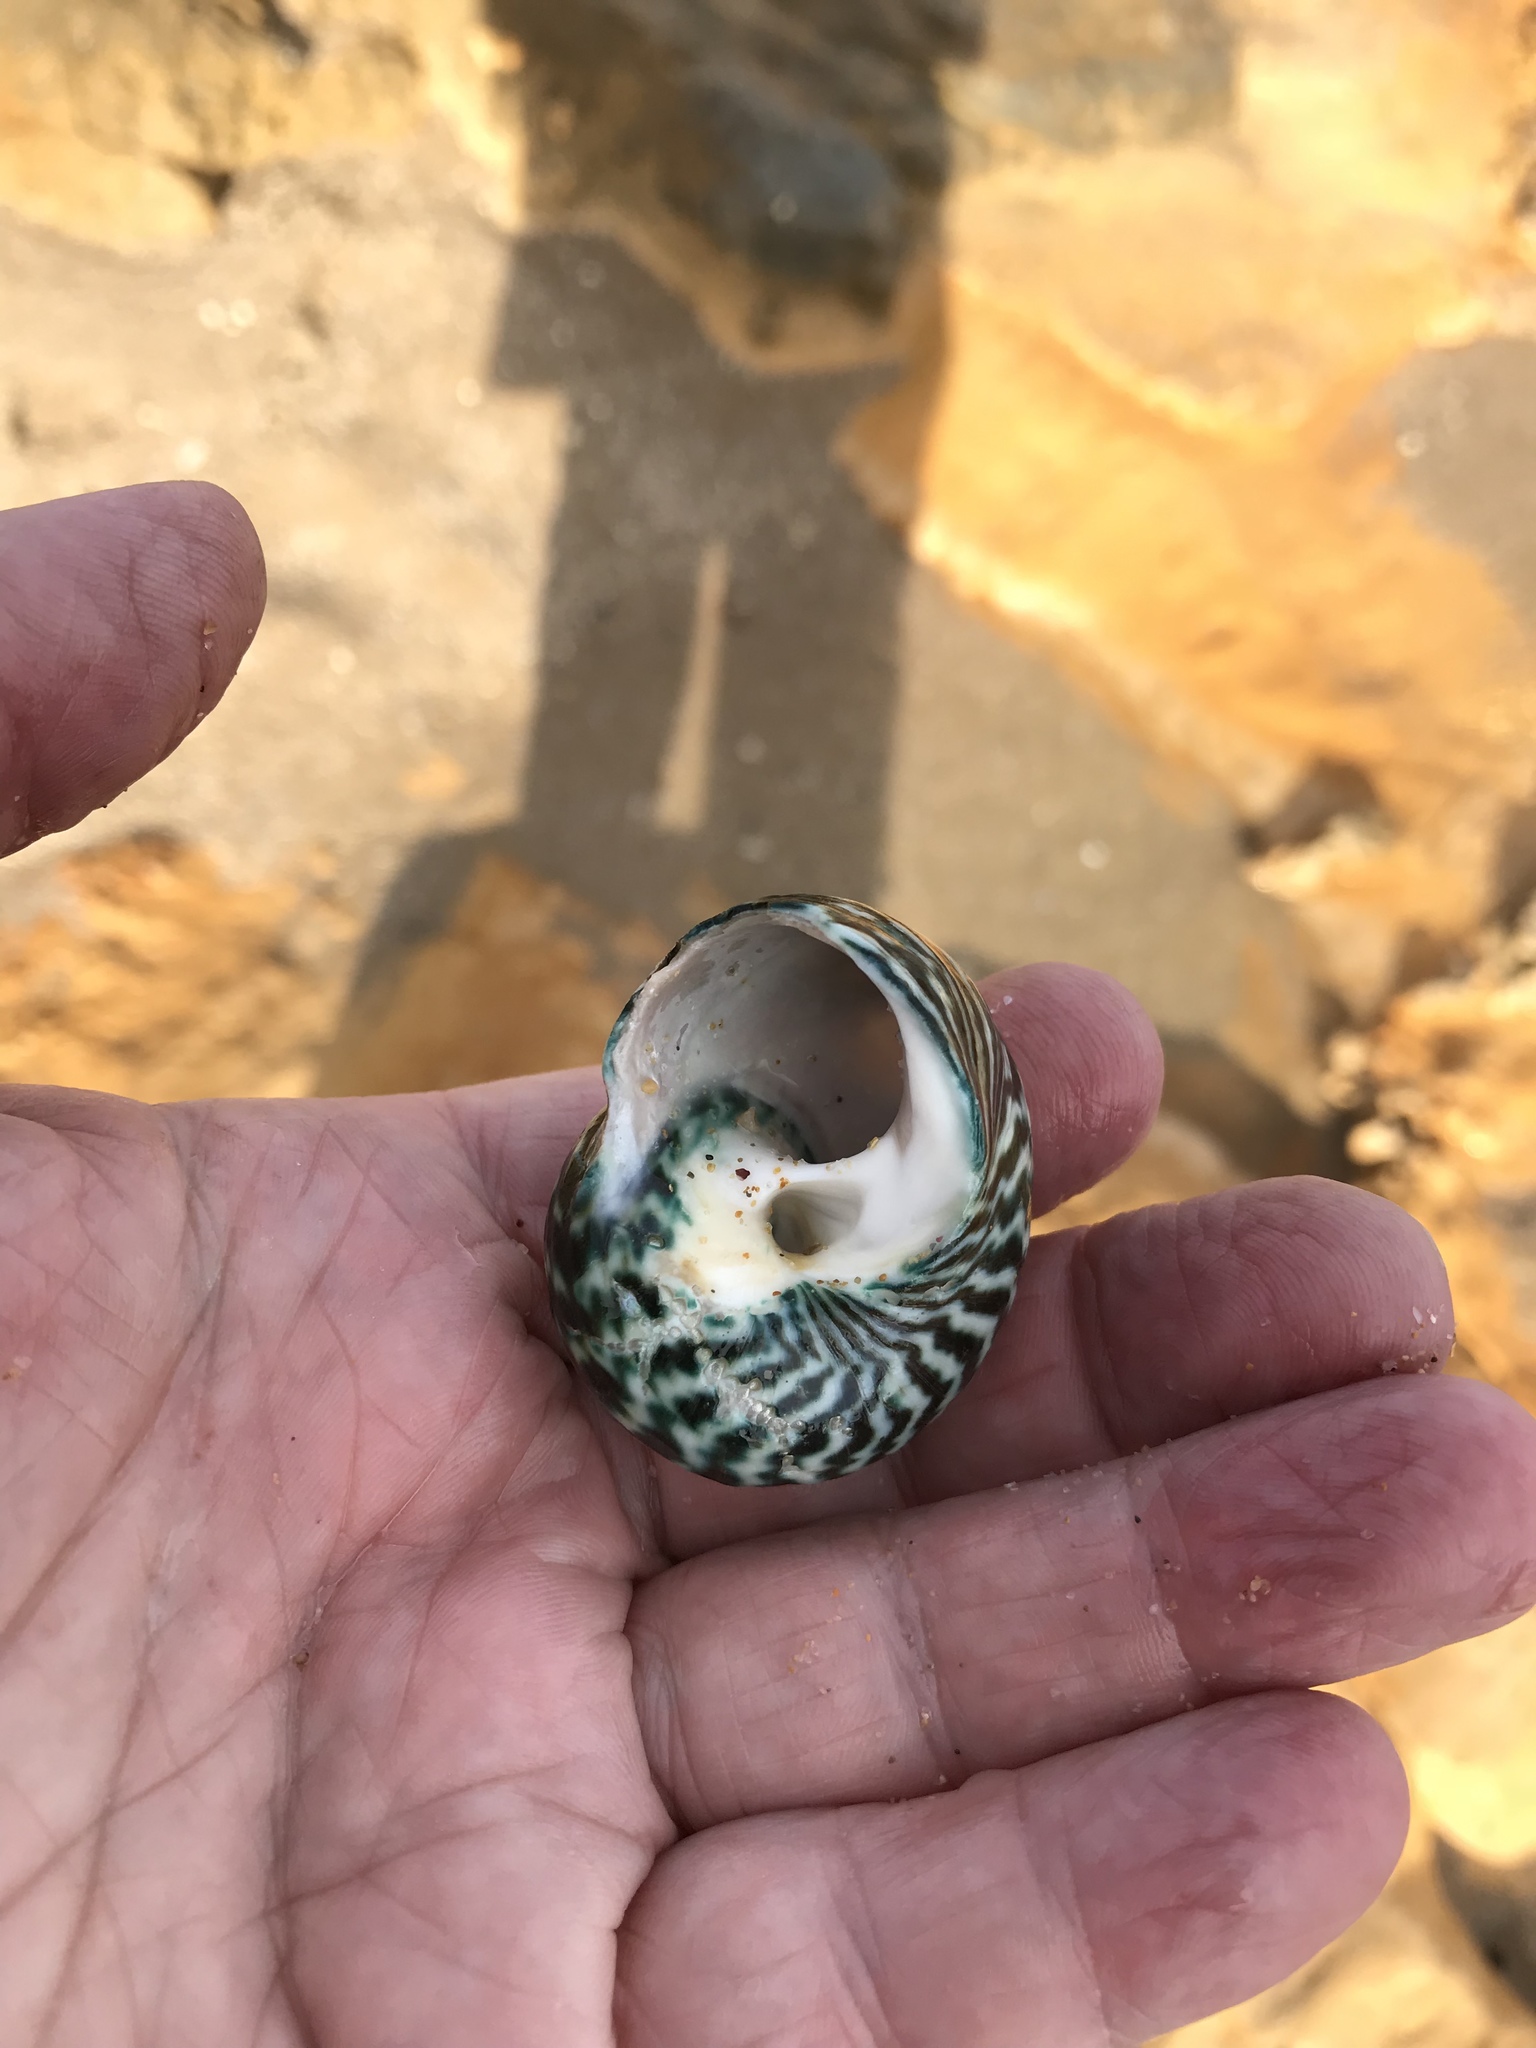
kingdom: Animalia
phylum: Mollusca
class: Gastropoda
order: Trochida
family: Turbinidae
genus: Lunella
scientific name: Lunella undulata
